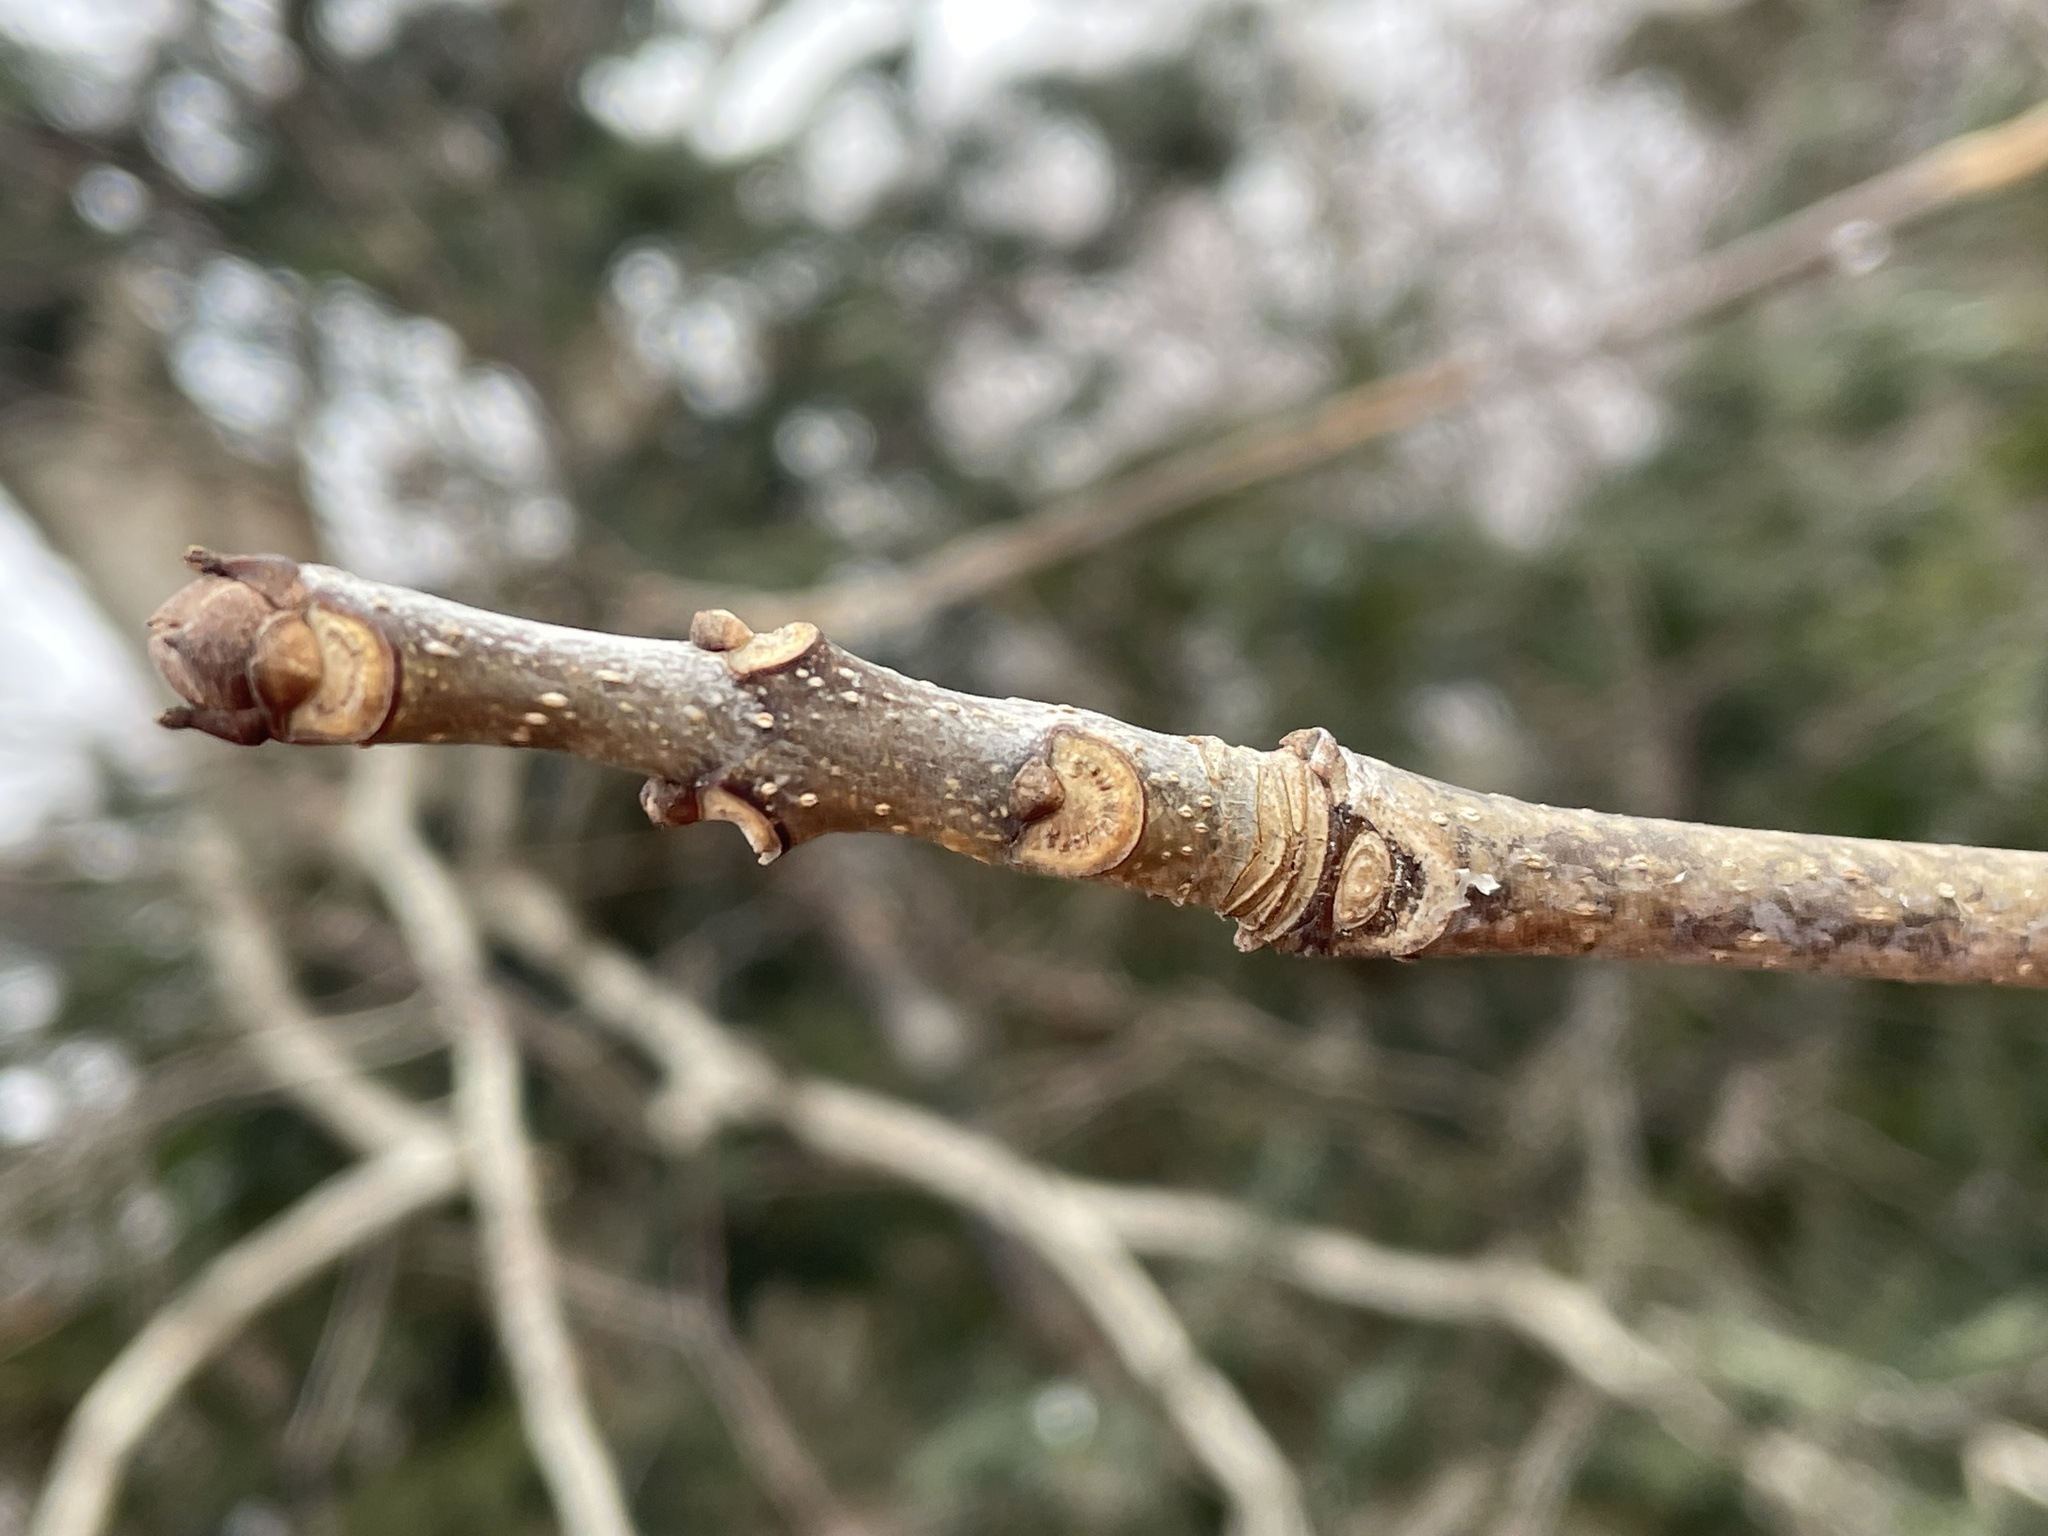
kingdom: Plantae
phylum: Tracheophyta
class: Magnoliopsida
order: Lamiales
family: Oleaceae
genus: Fraxinus
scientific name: Fraxinus americana
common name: White ash
